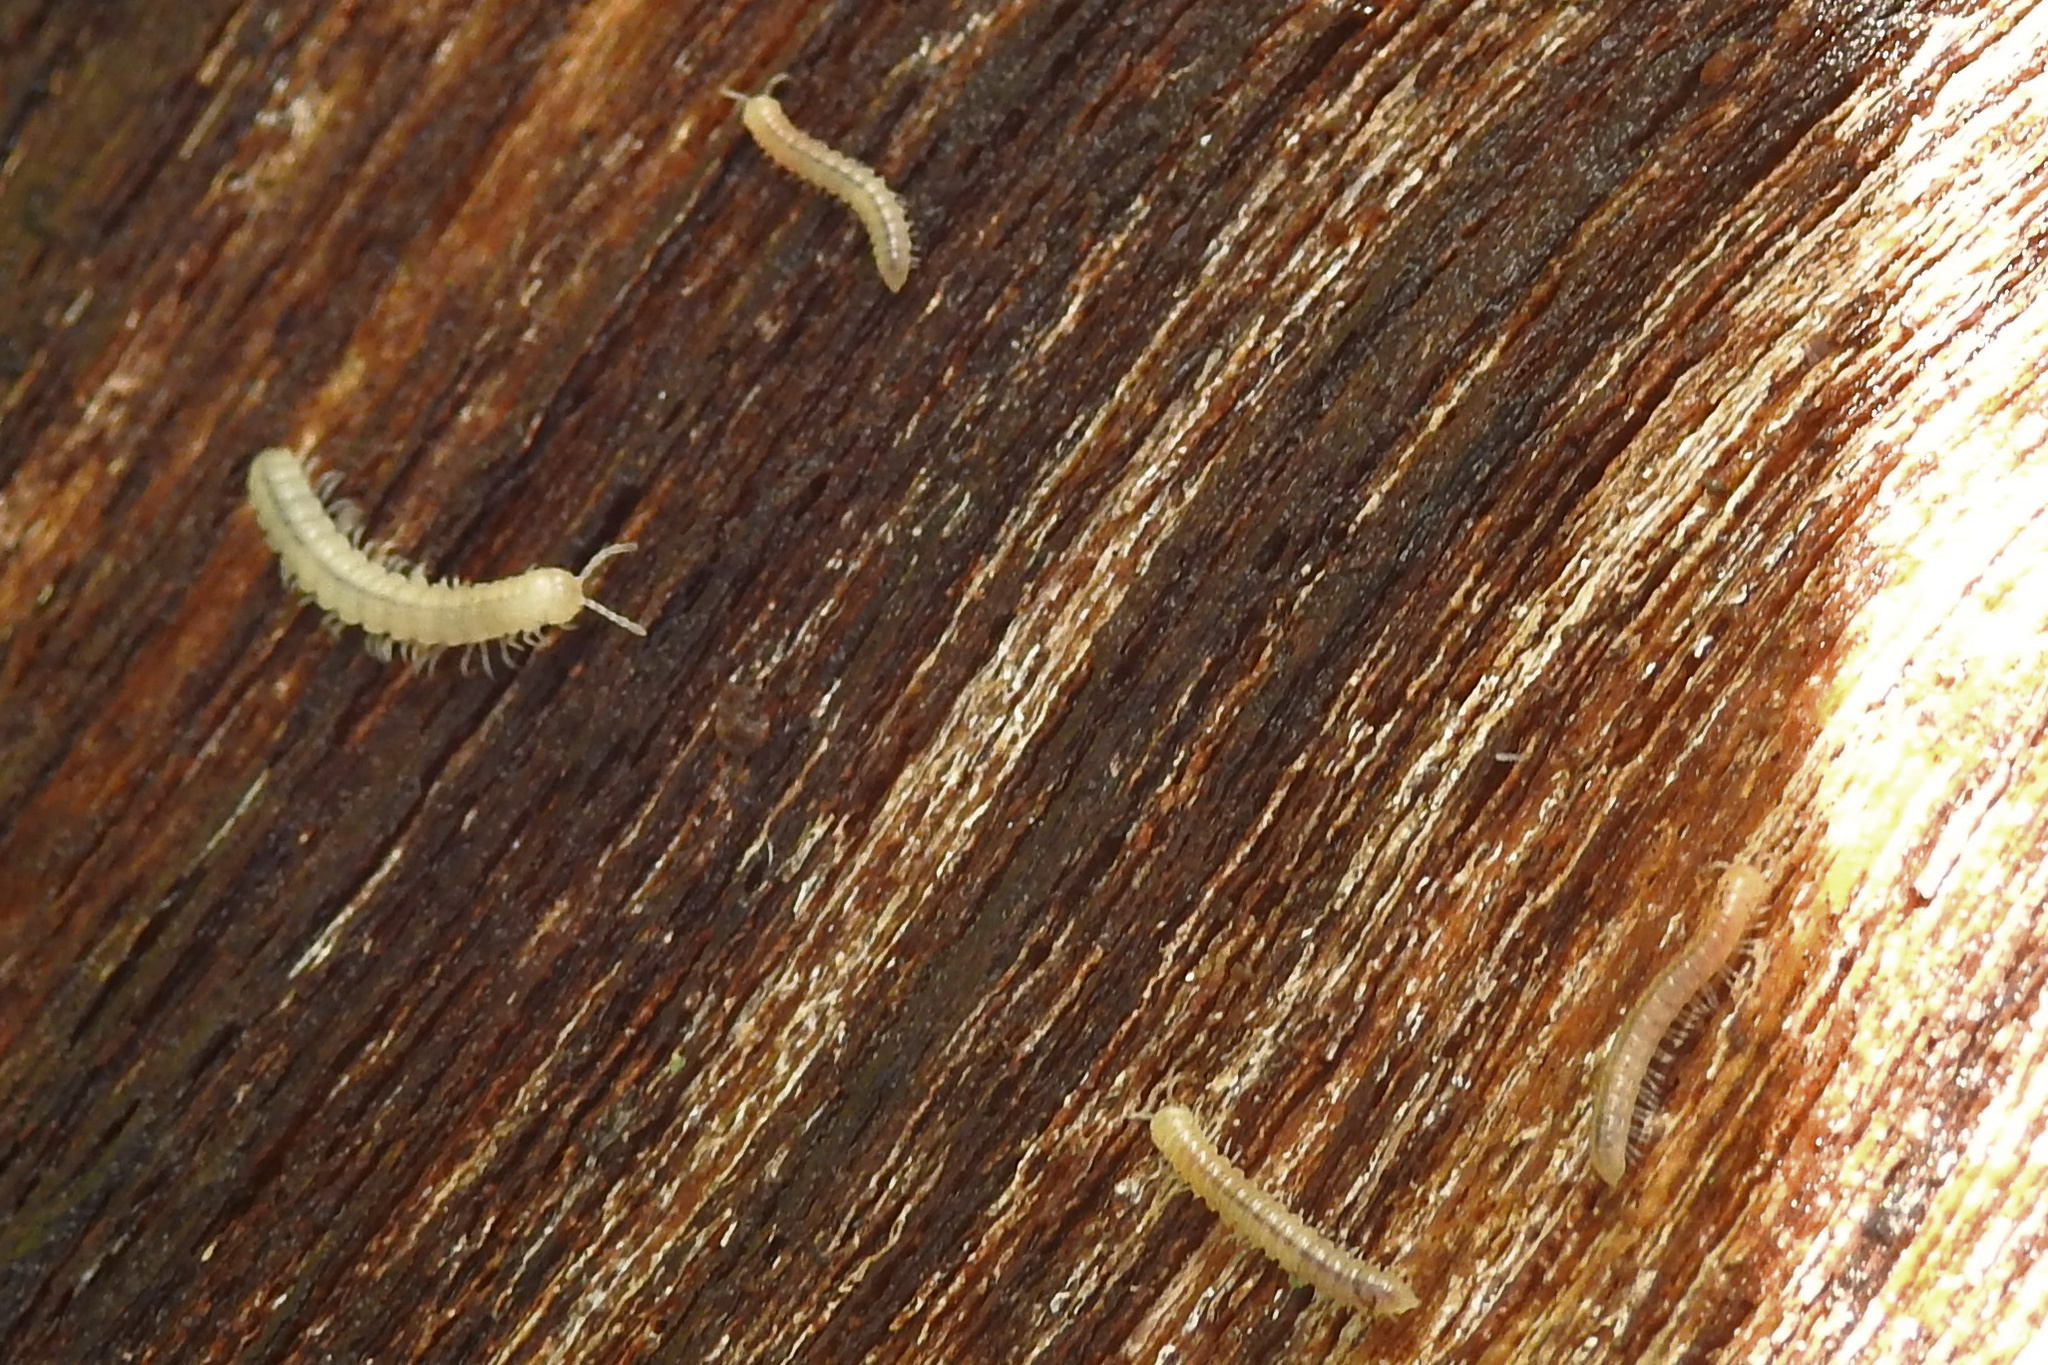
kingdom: Animalia
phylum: Arthropoda
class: Diplopoda
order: Polydesmida
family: Paradoxosomatidae
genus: Oxidus
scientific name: Oxidus gracilis
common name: Greenhouse millipede
